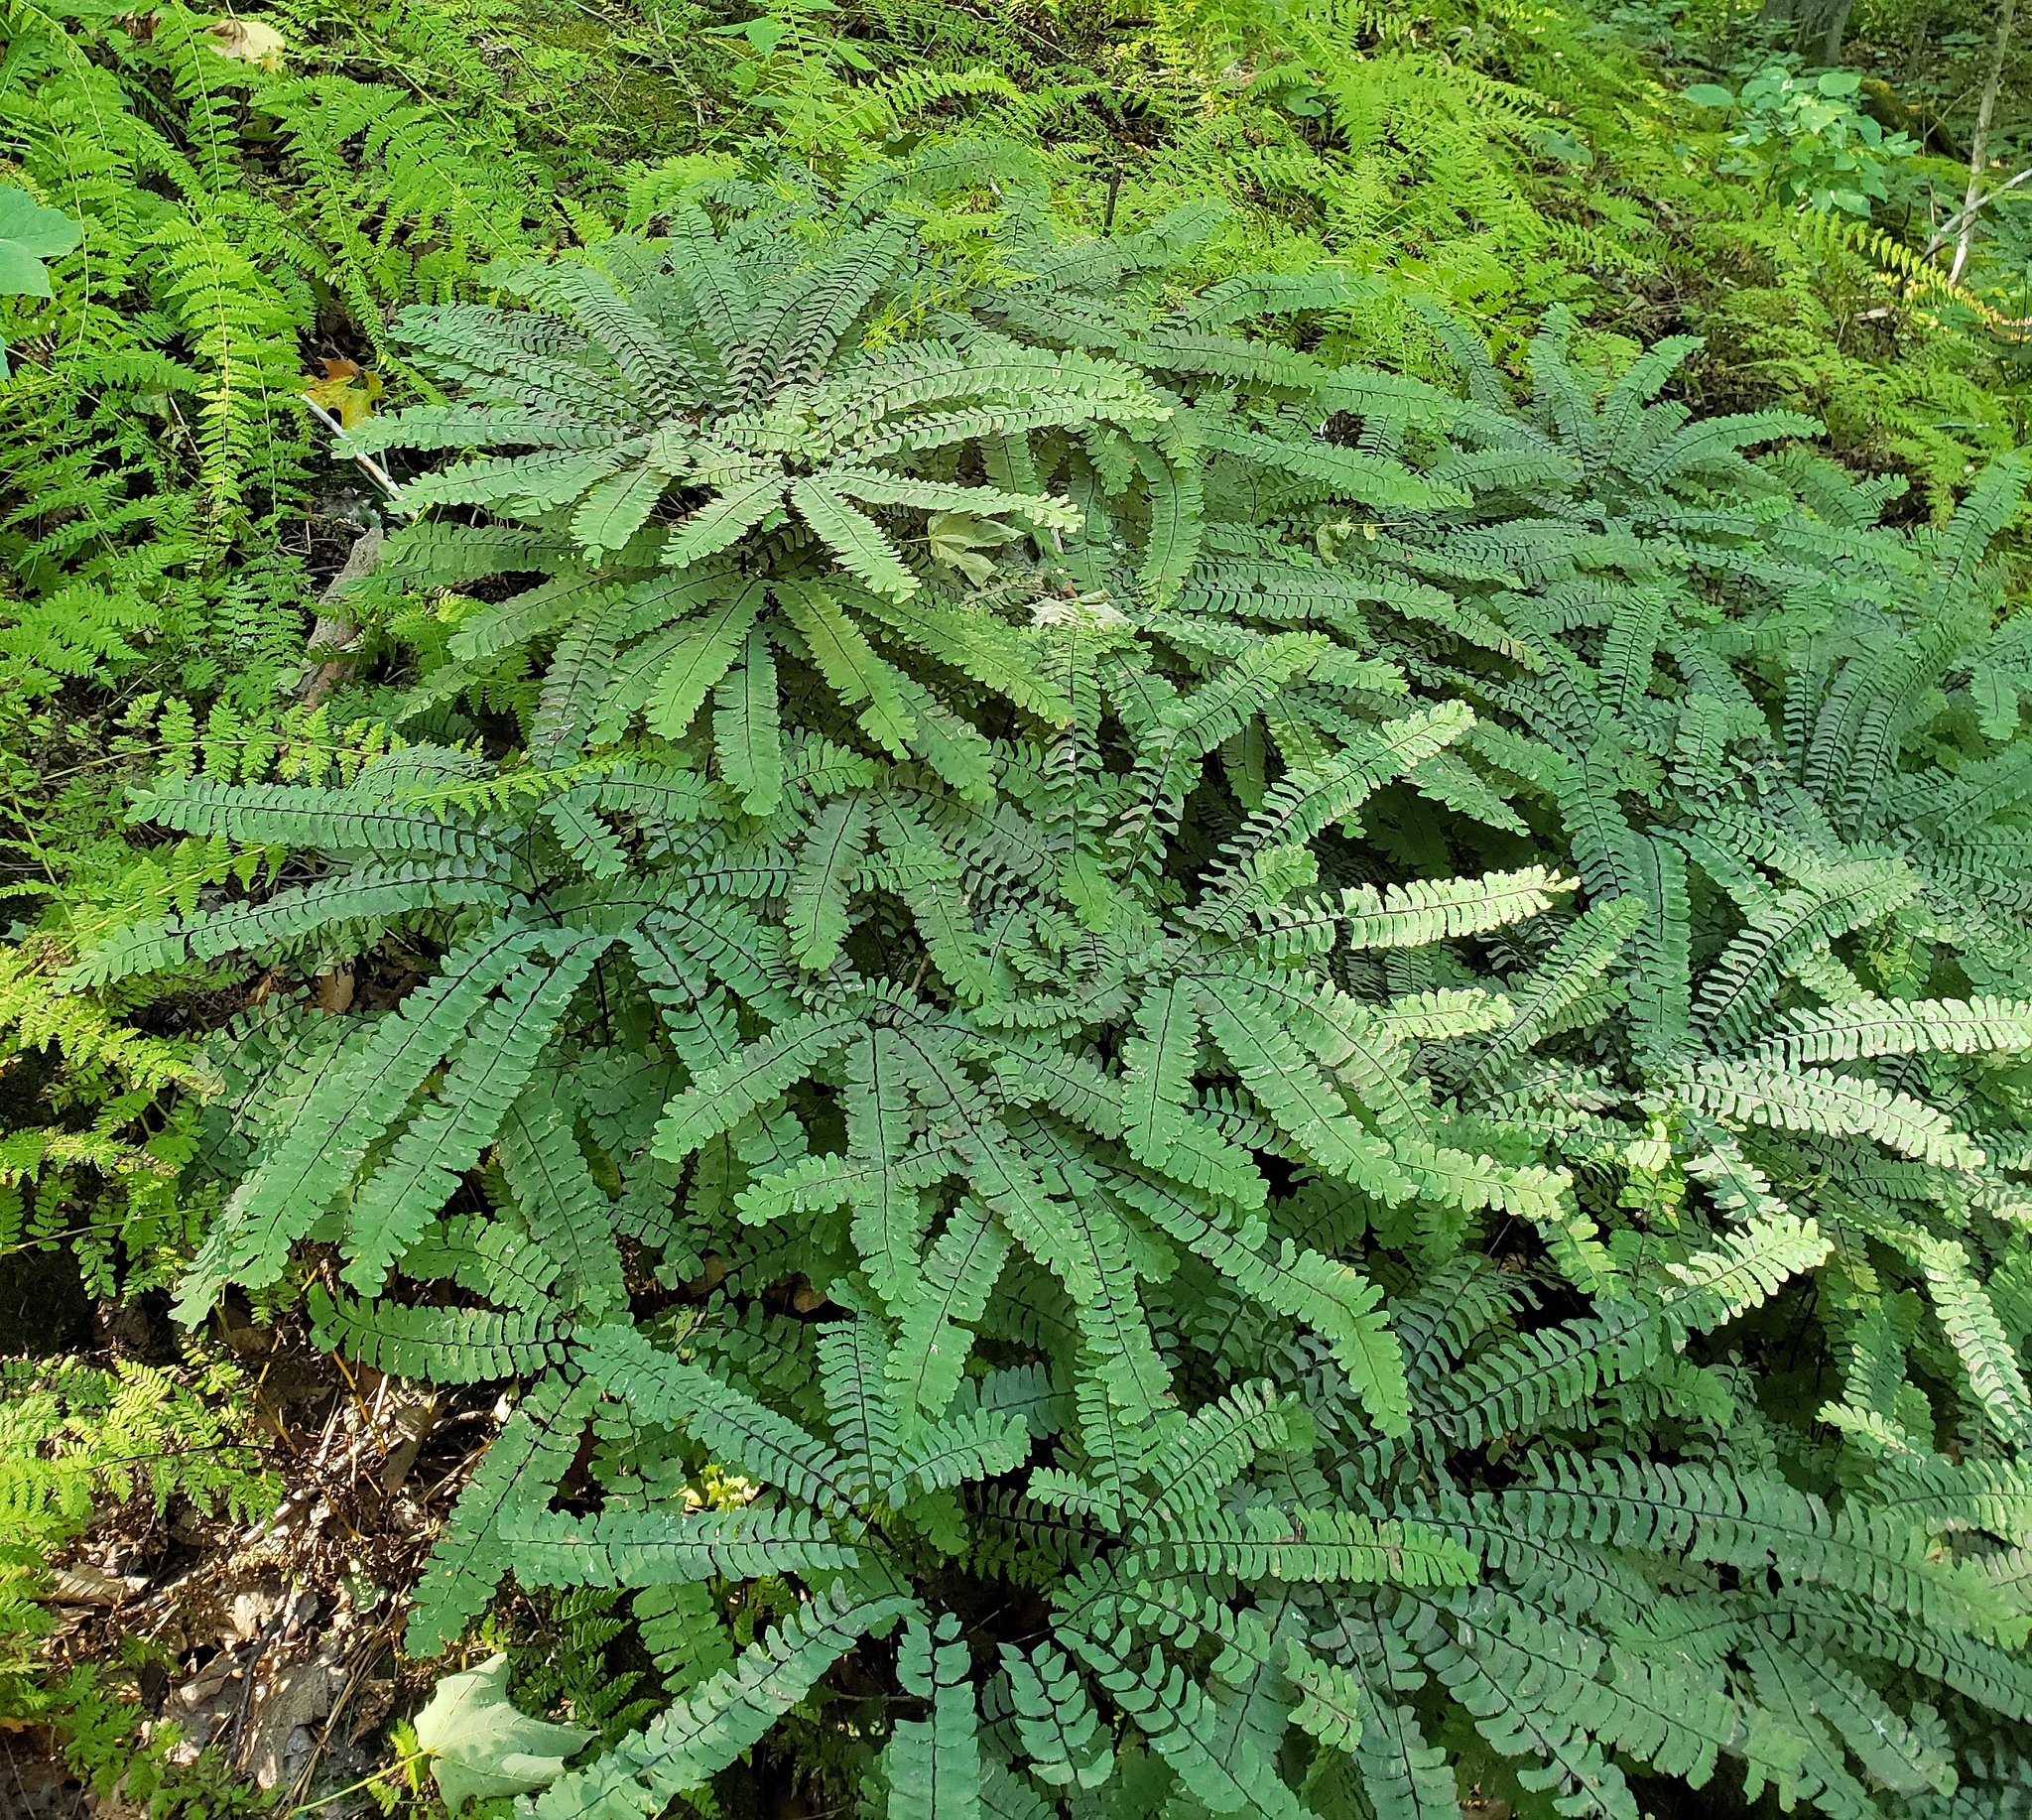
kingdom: Plantae
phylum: Tracheophyta
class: Polypodiopsida
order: Polypodiales
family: Pteridaceae
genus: Adiantum
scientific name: Adiantum pedatum
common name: Five-finger fern
